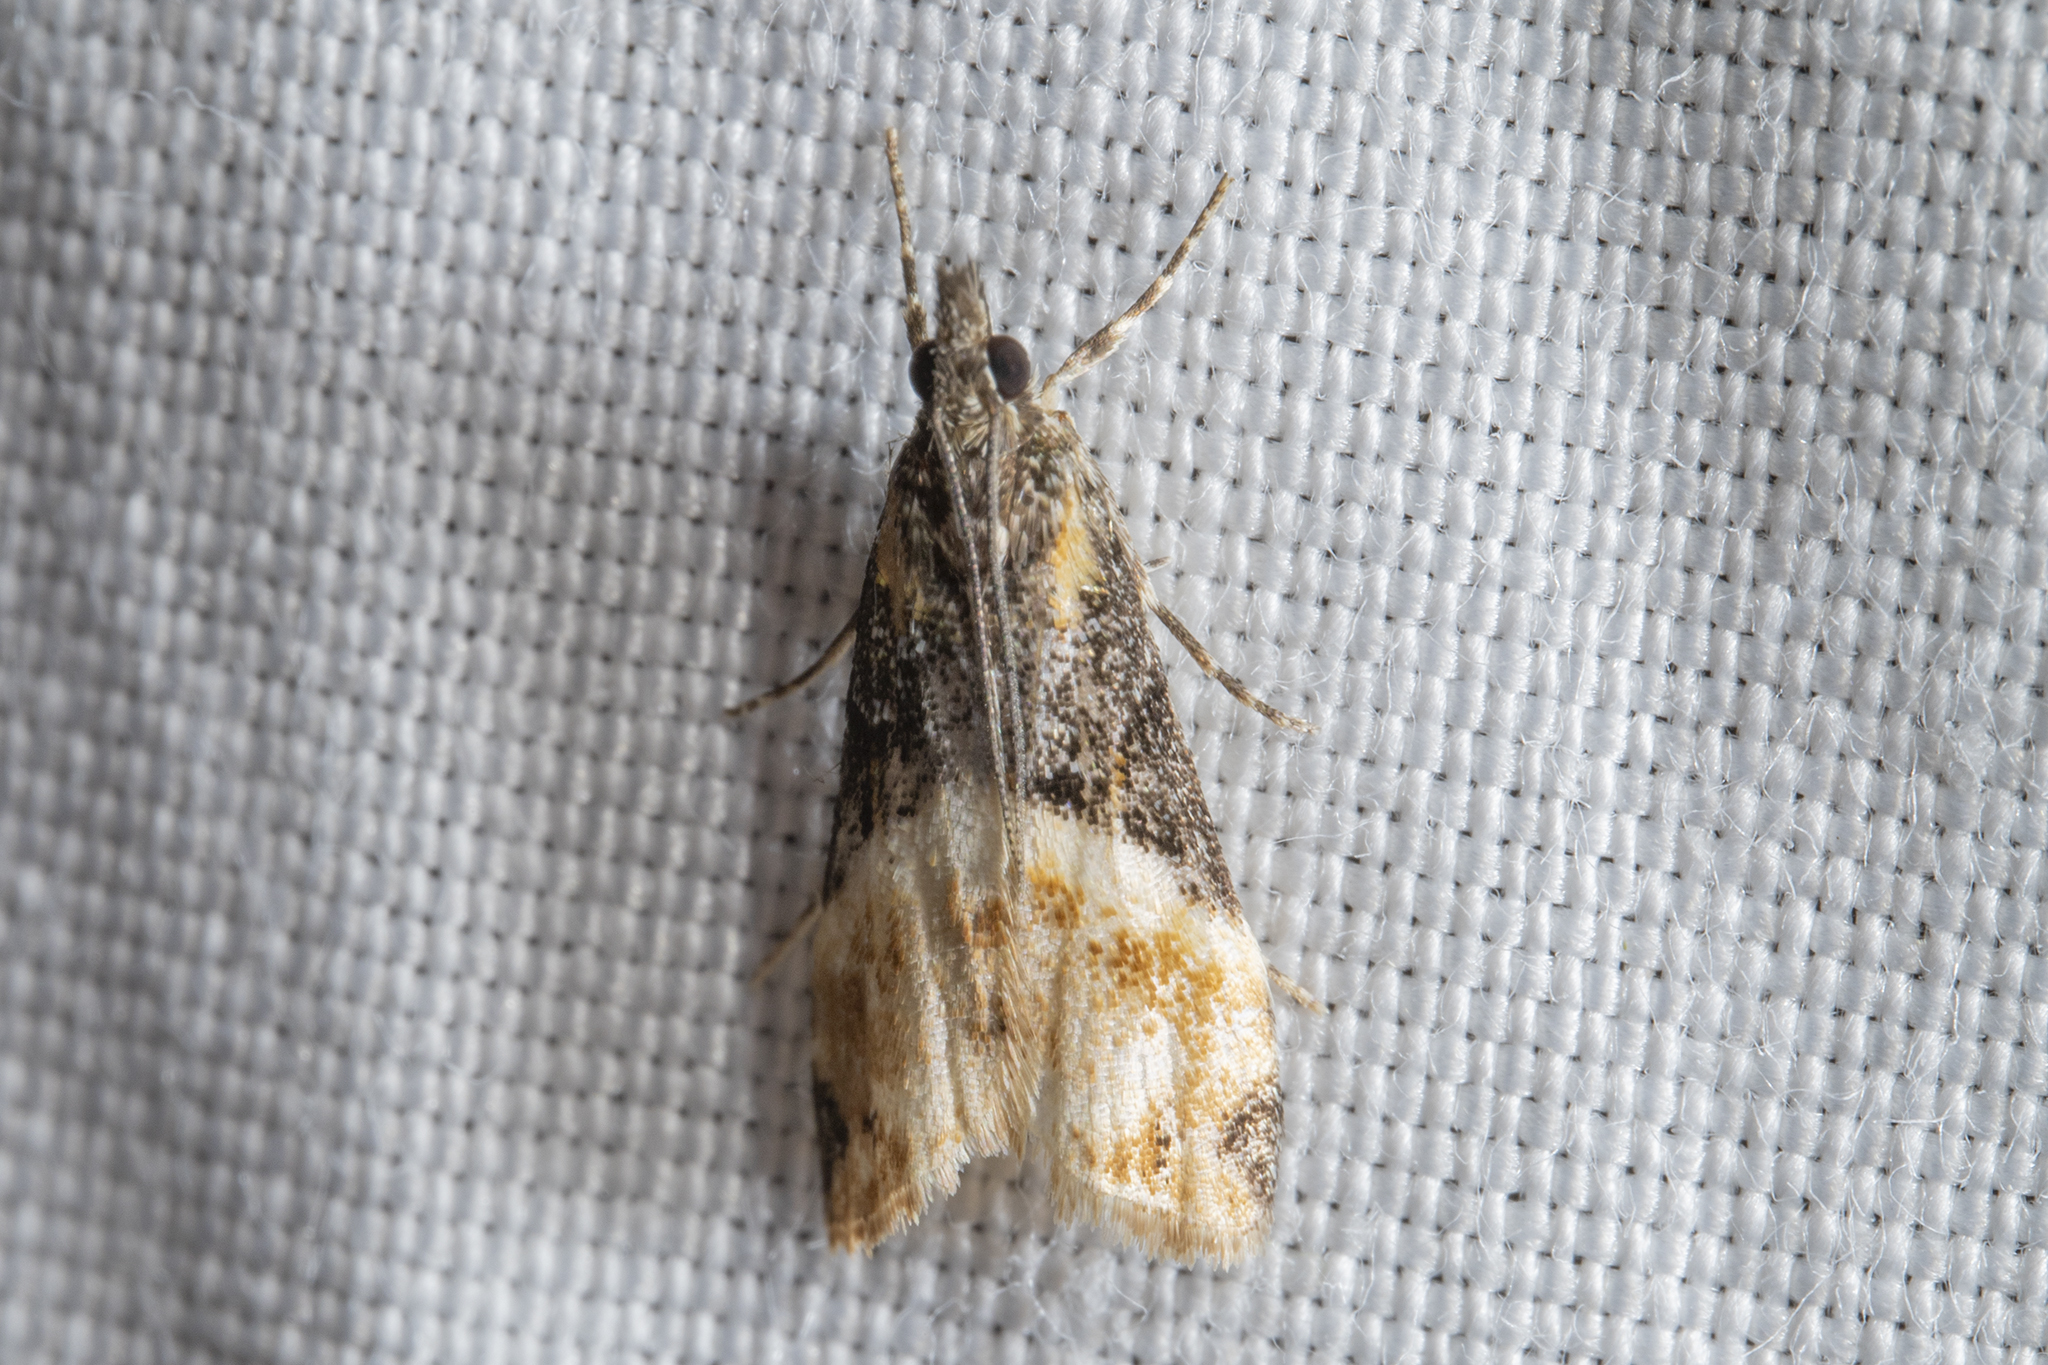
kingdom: Animalia
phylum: Arthropoda
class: Insecta
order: Lepidoptera
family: Crambidae
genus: Eudonia
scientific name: Eudonia chlamydota
